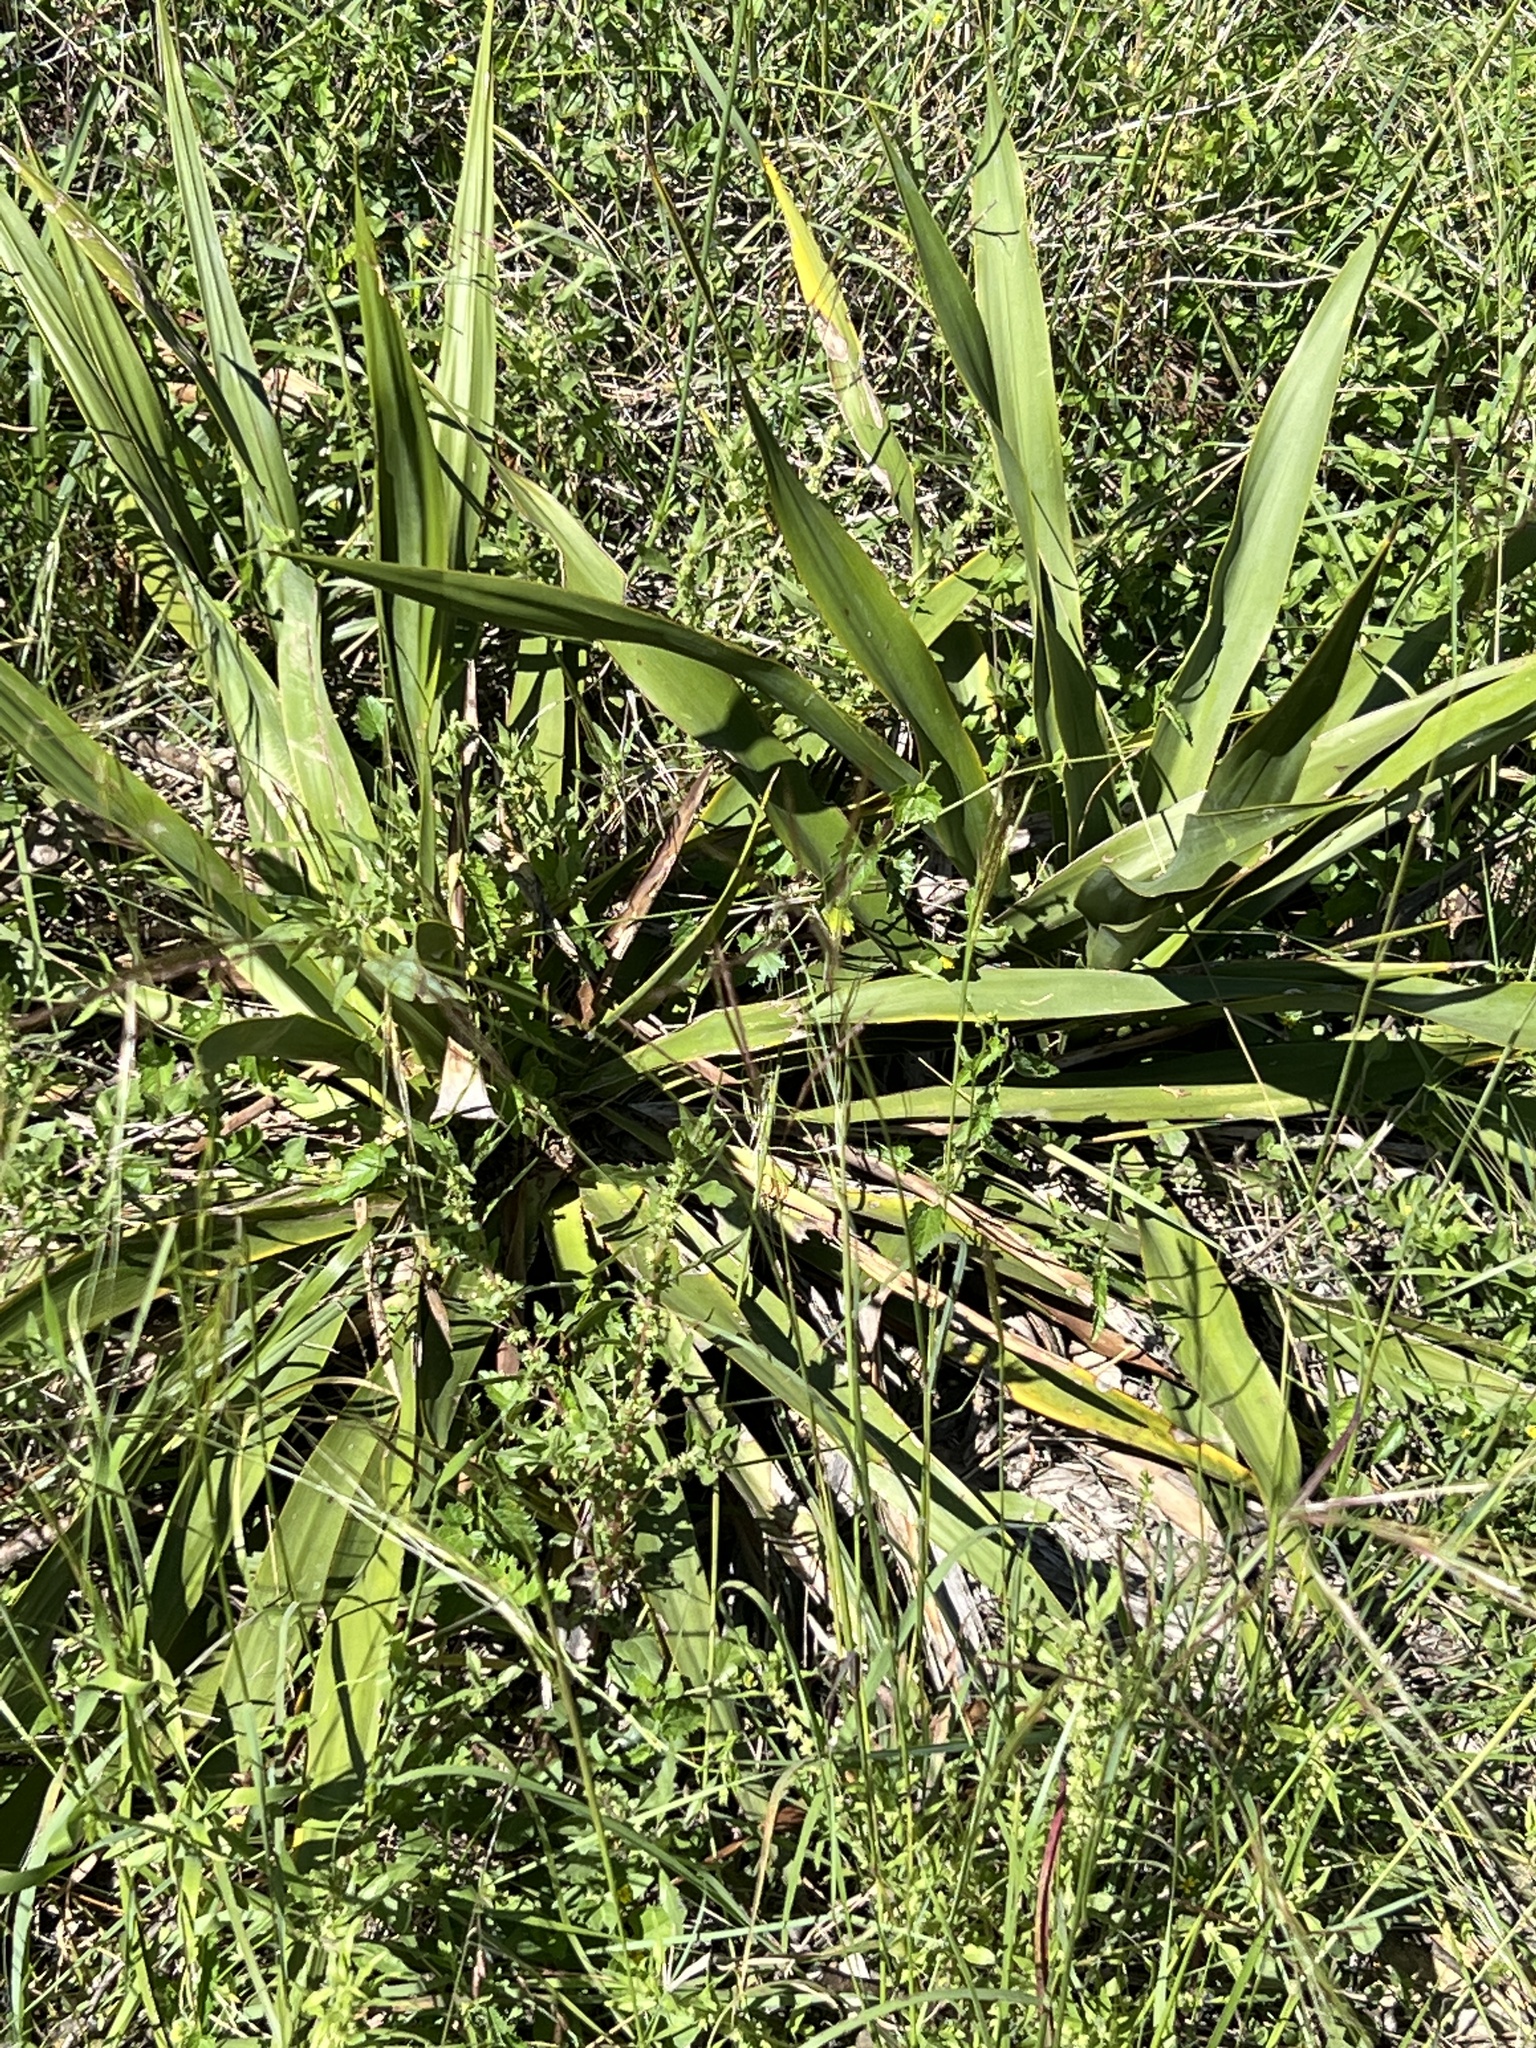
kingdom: Plantae
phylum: Tracheophyta
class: Liliopsida
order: Asparagales
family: Asparagaceae
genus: Yucca
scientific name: Yucca rupicola
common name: Twisted-leaf spanish-dagger
